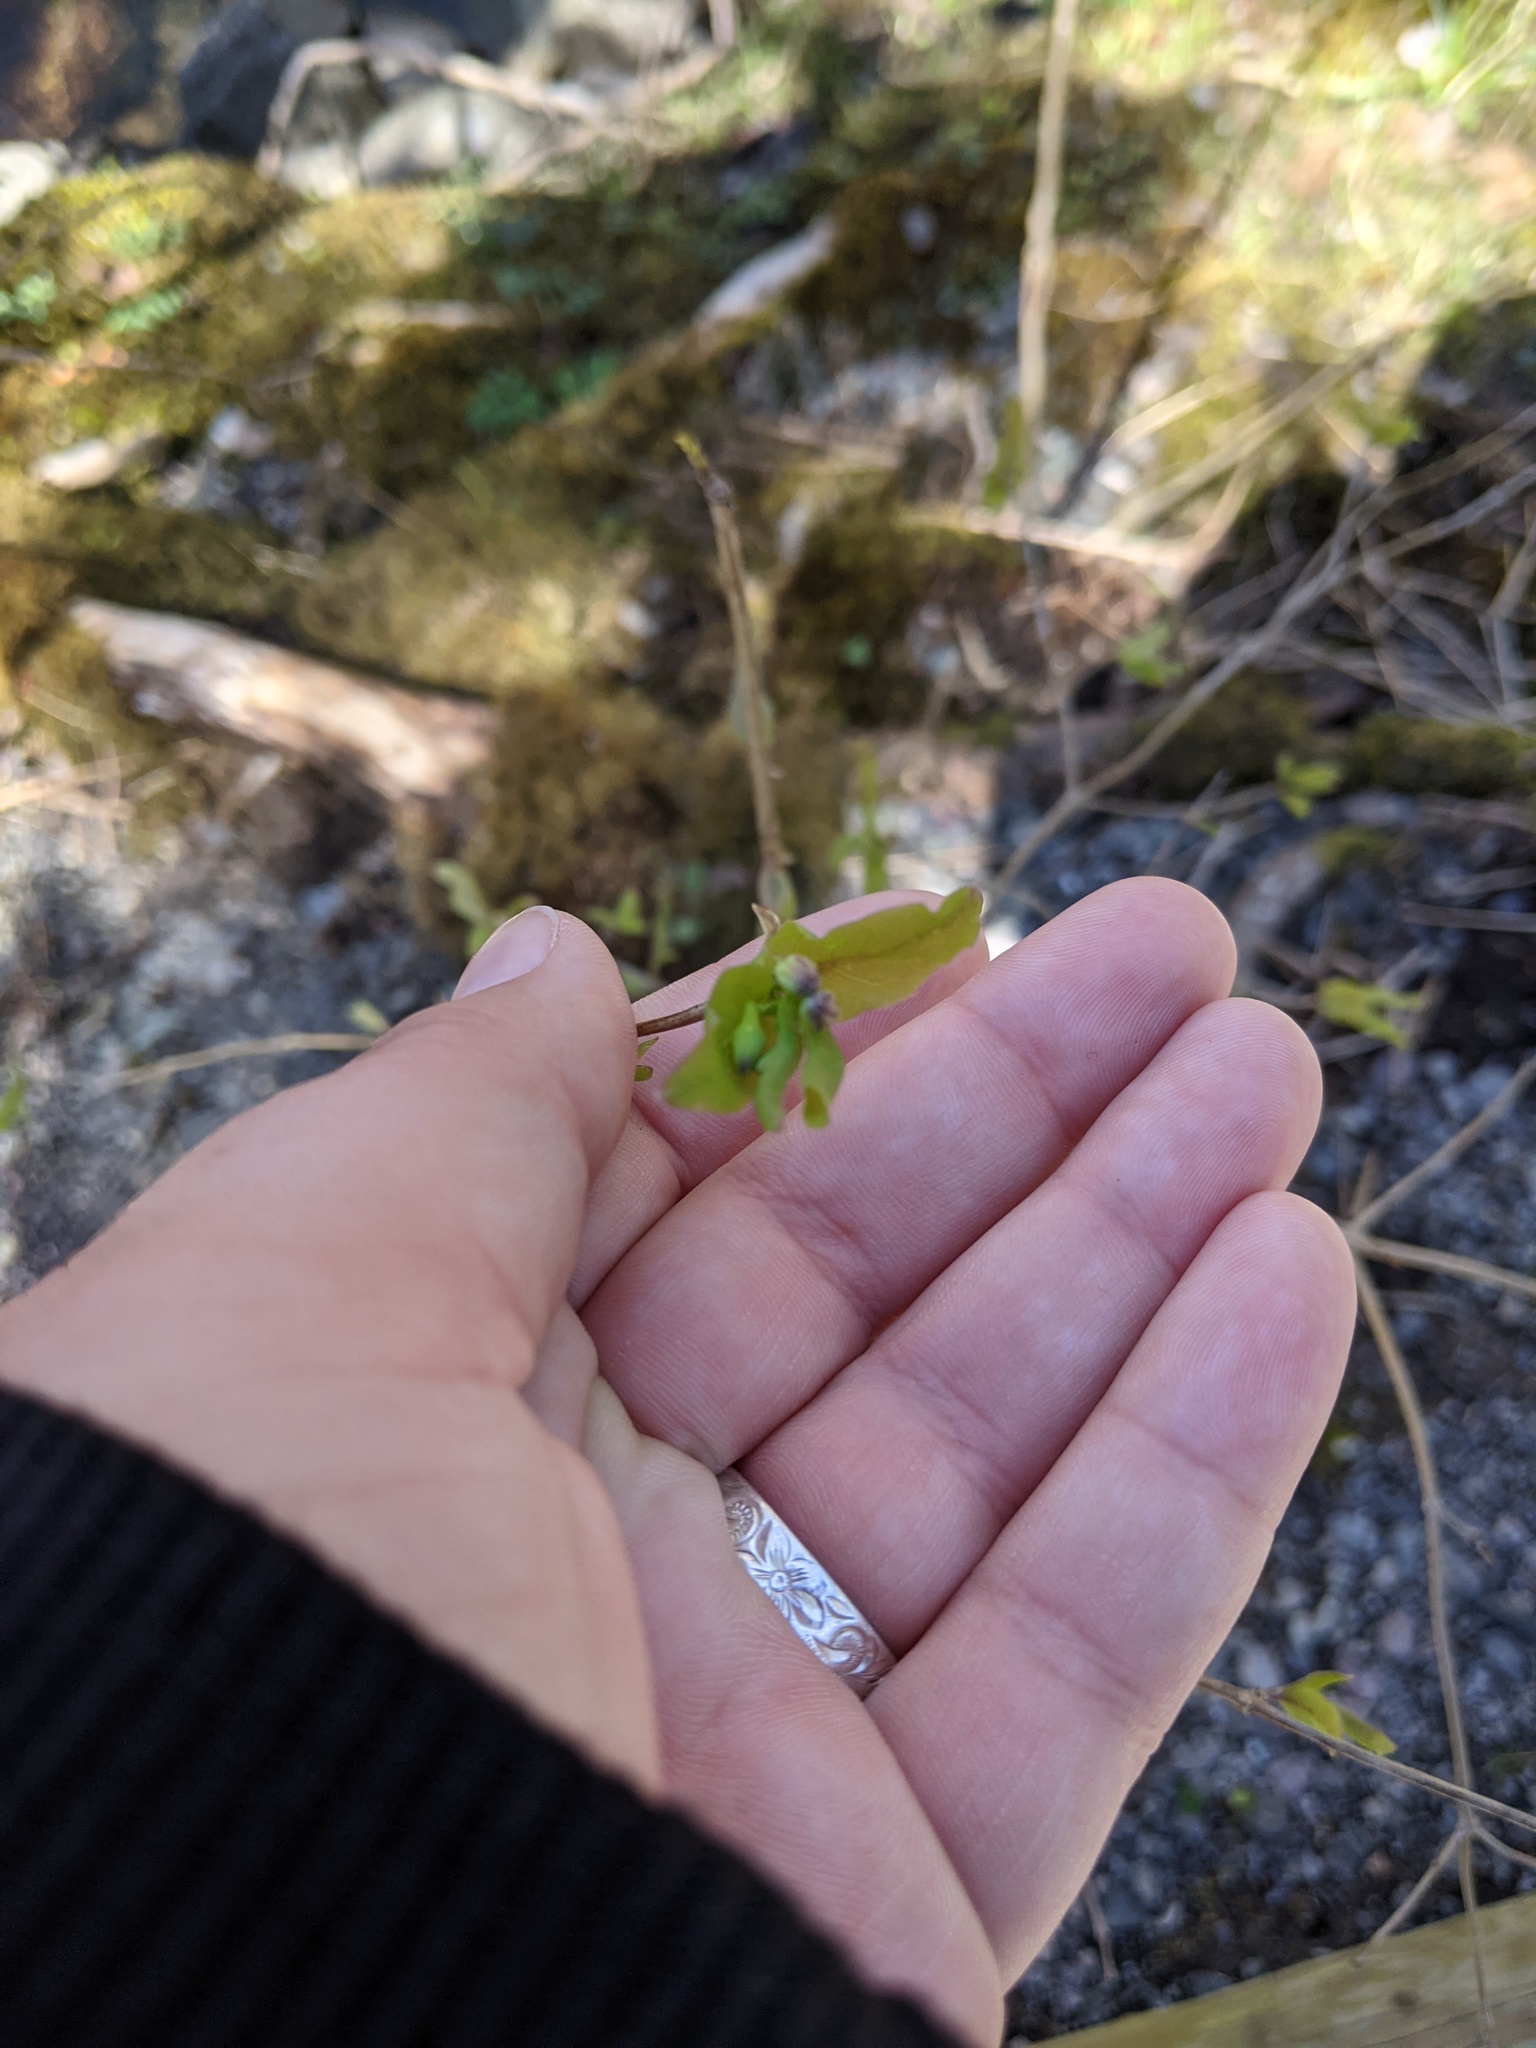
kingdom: Plantae
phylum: Tracheophyta
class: Magnoliopsida
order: Dipsacales
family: Caprifoliaceae
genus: Lonicera
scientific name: Lonicera canadensis
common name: American fly-honeysuckle
